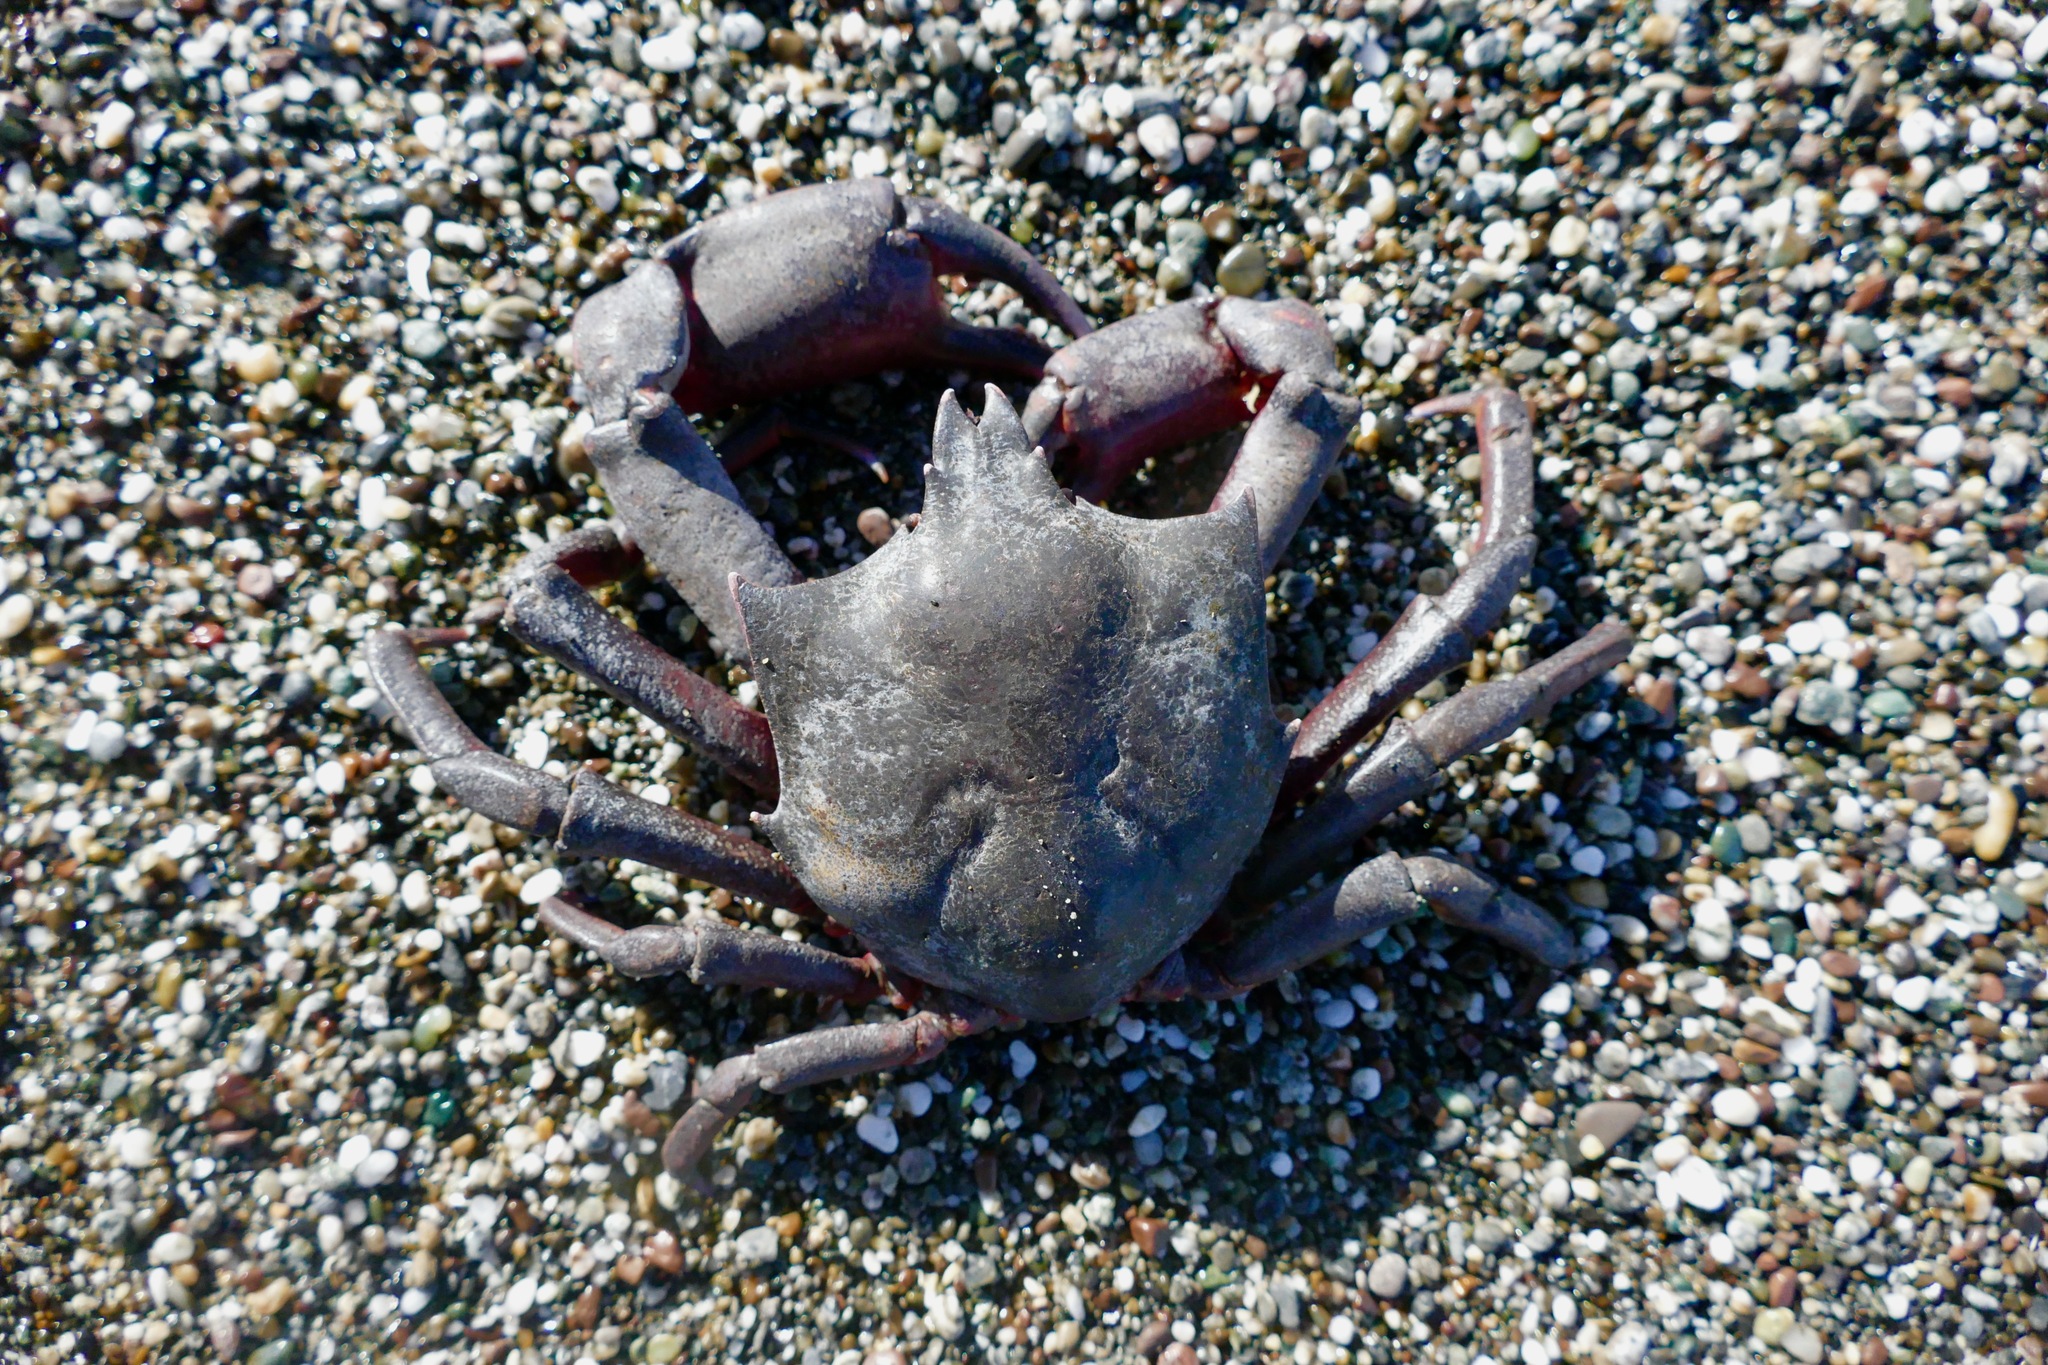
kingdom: Animalia
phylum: Arthropoda
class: Malacostraca
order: Decapoda
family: Epialtidae
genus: Pugettia
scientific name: Pugettia producta
